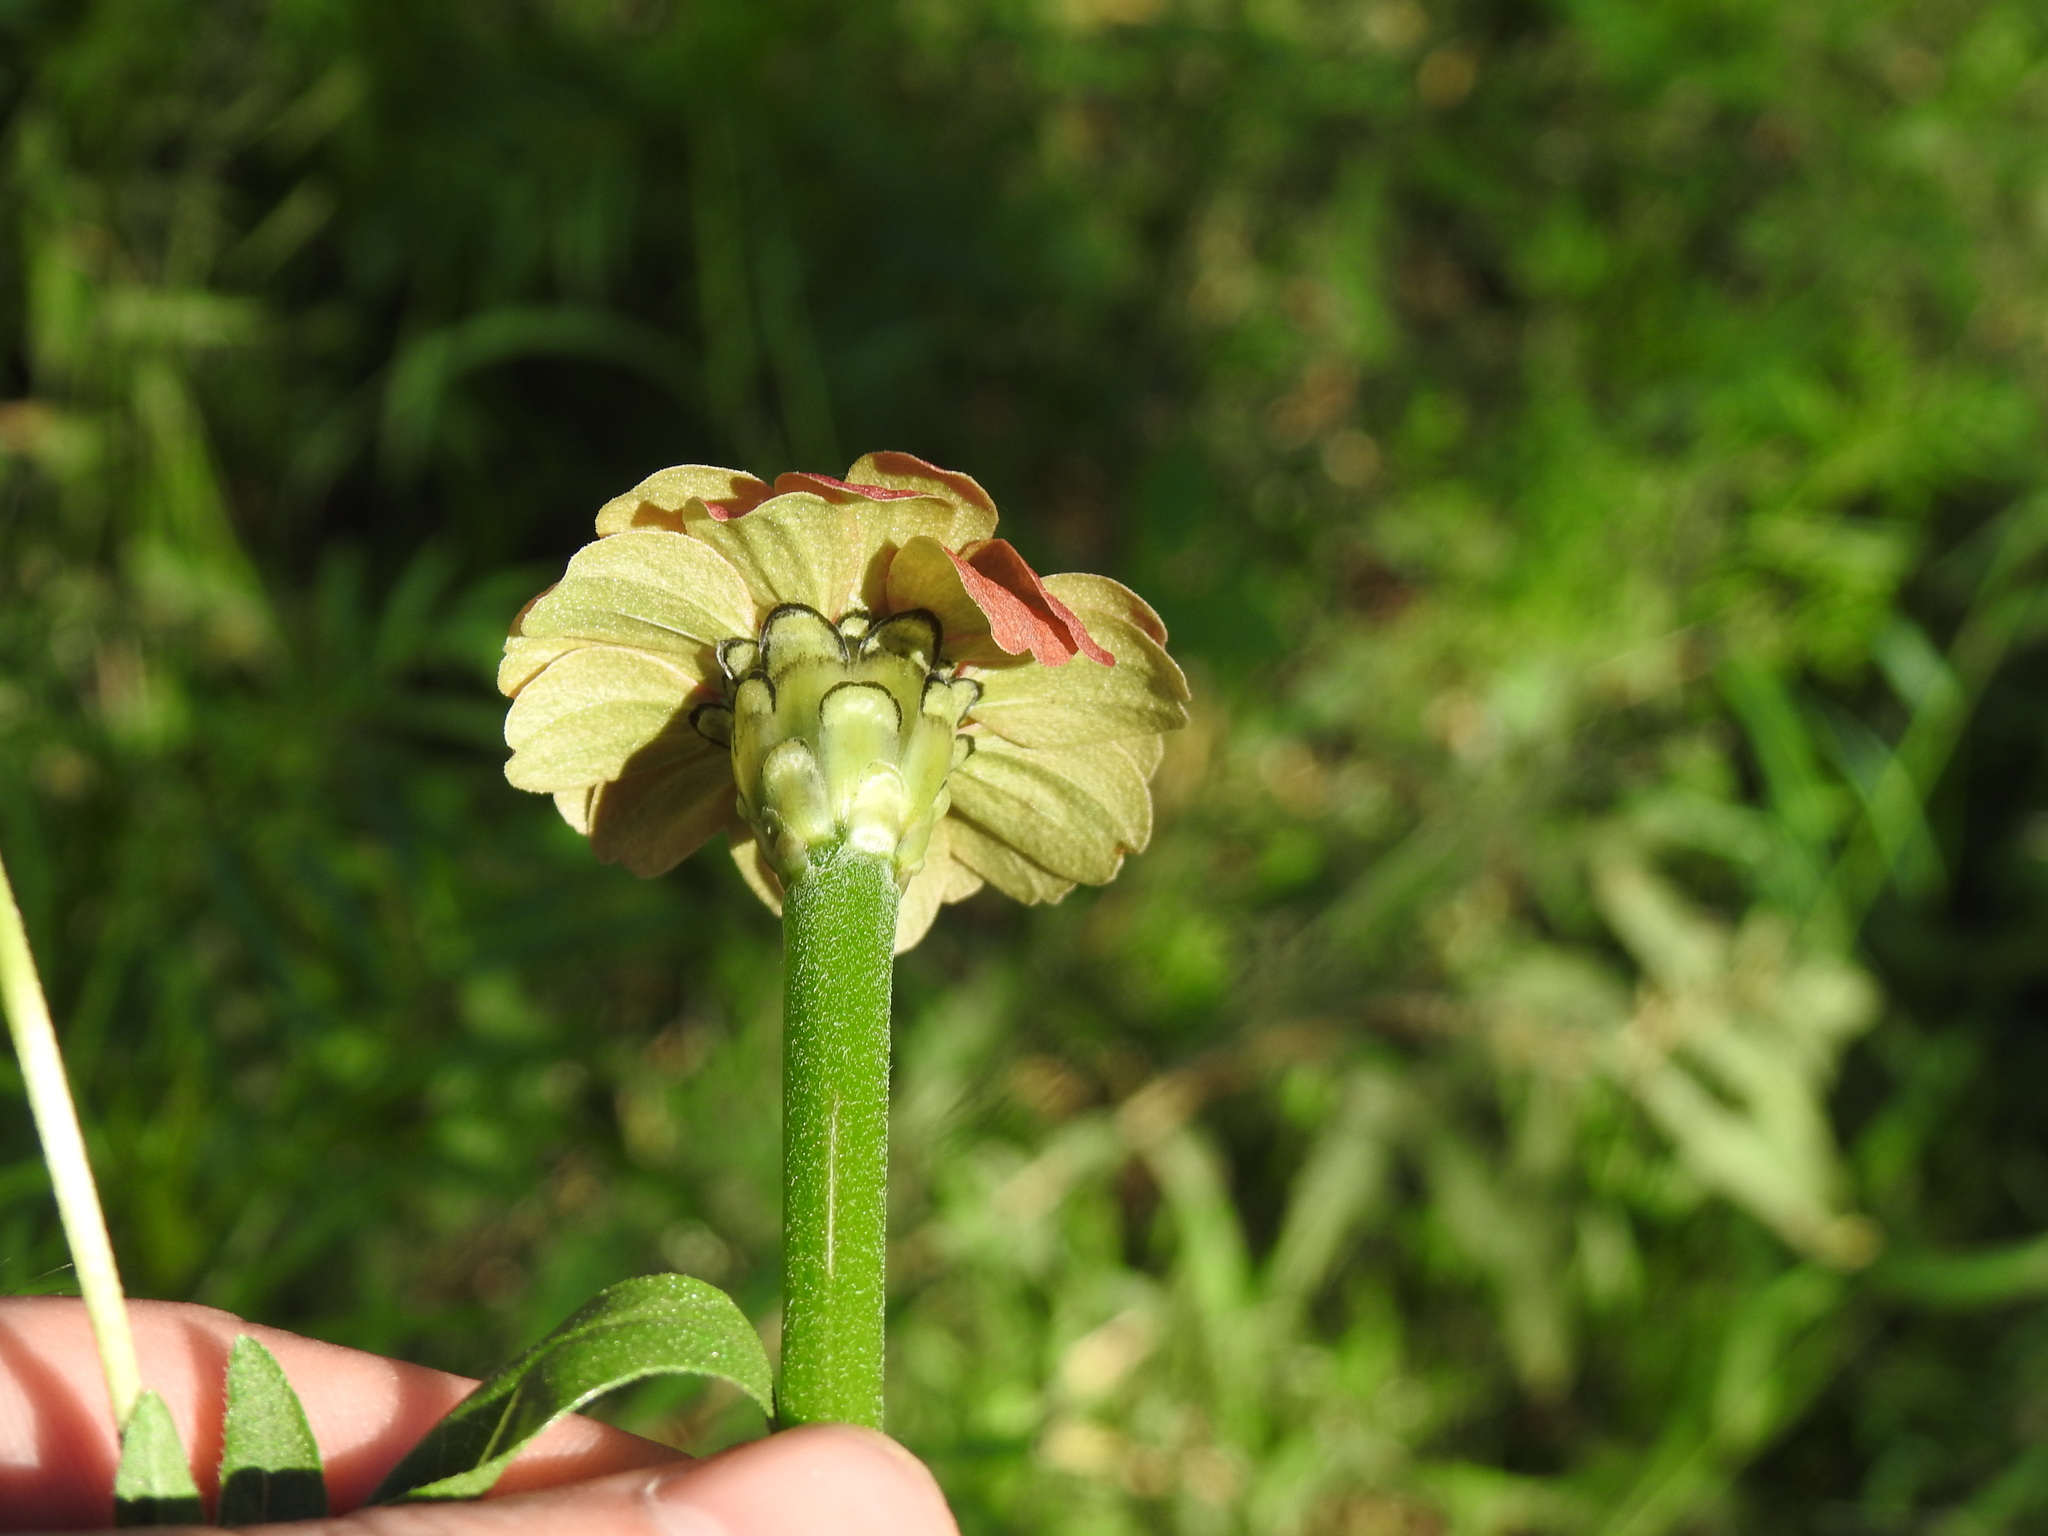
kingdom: Plantae
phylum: Tracheophyta
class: Magnoliopsida
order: Asterales
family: Asteraceae
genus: Zinnia
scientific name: Zinnia peruviana
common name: Peruvian zinnia
